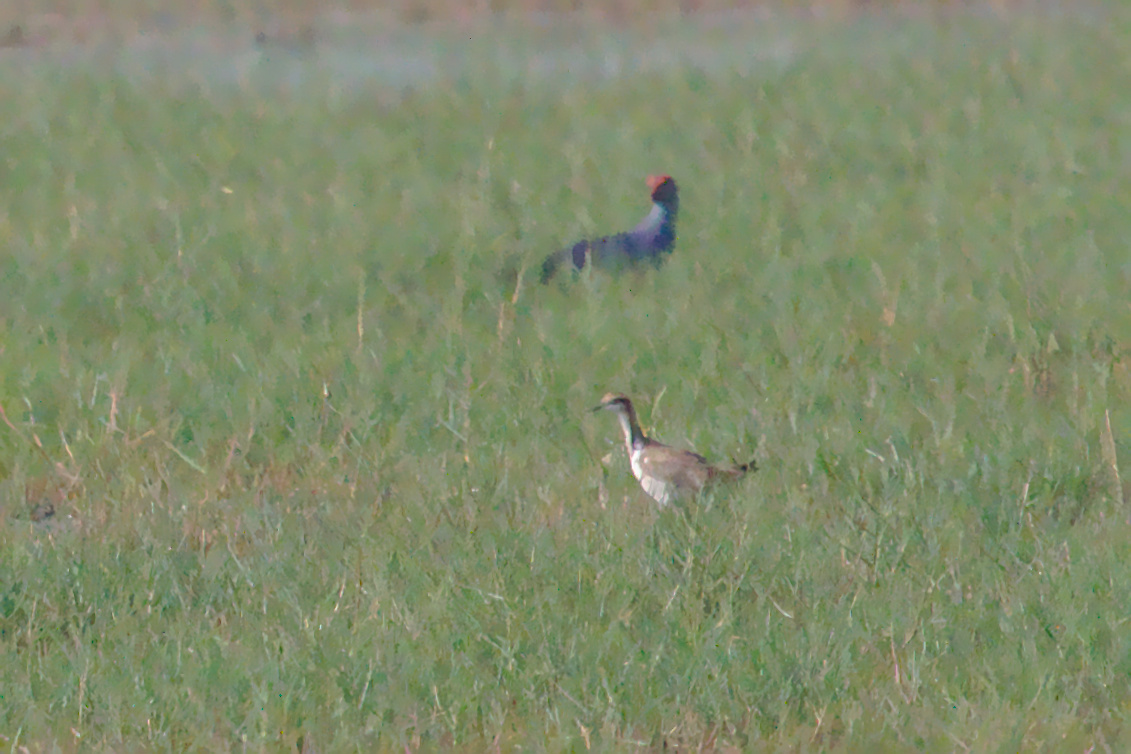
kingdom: Animalia
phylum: Chordata
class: Aves
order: Charadriiformes
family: Jacanidae
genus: Hydrophasianus
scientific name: Hydrophasianus chirurgus
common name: Pheasant-tailed jacana
